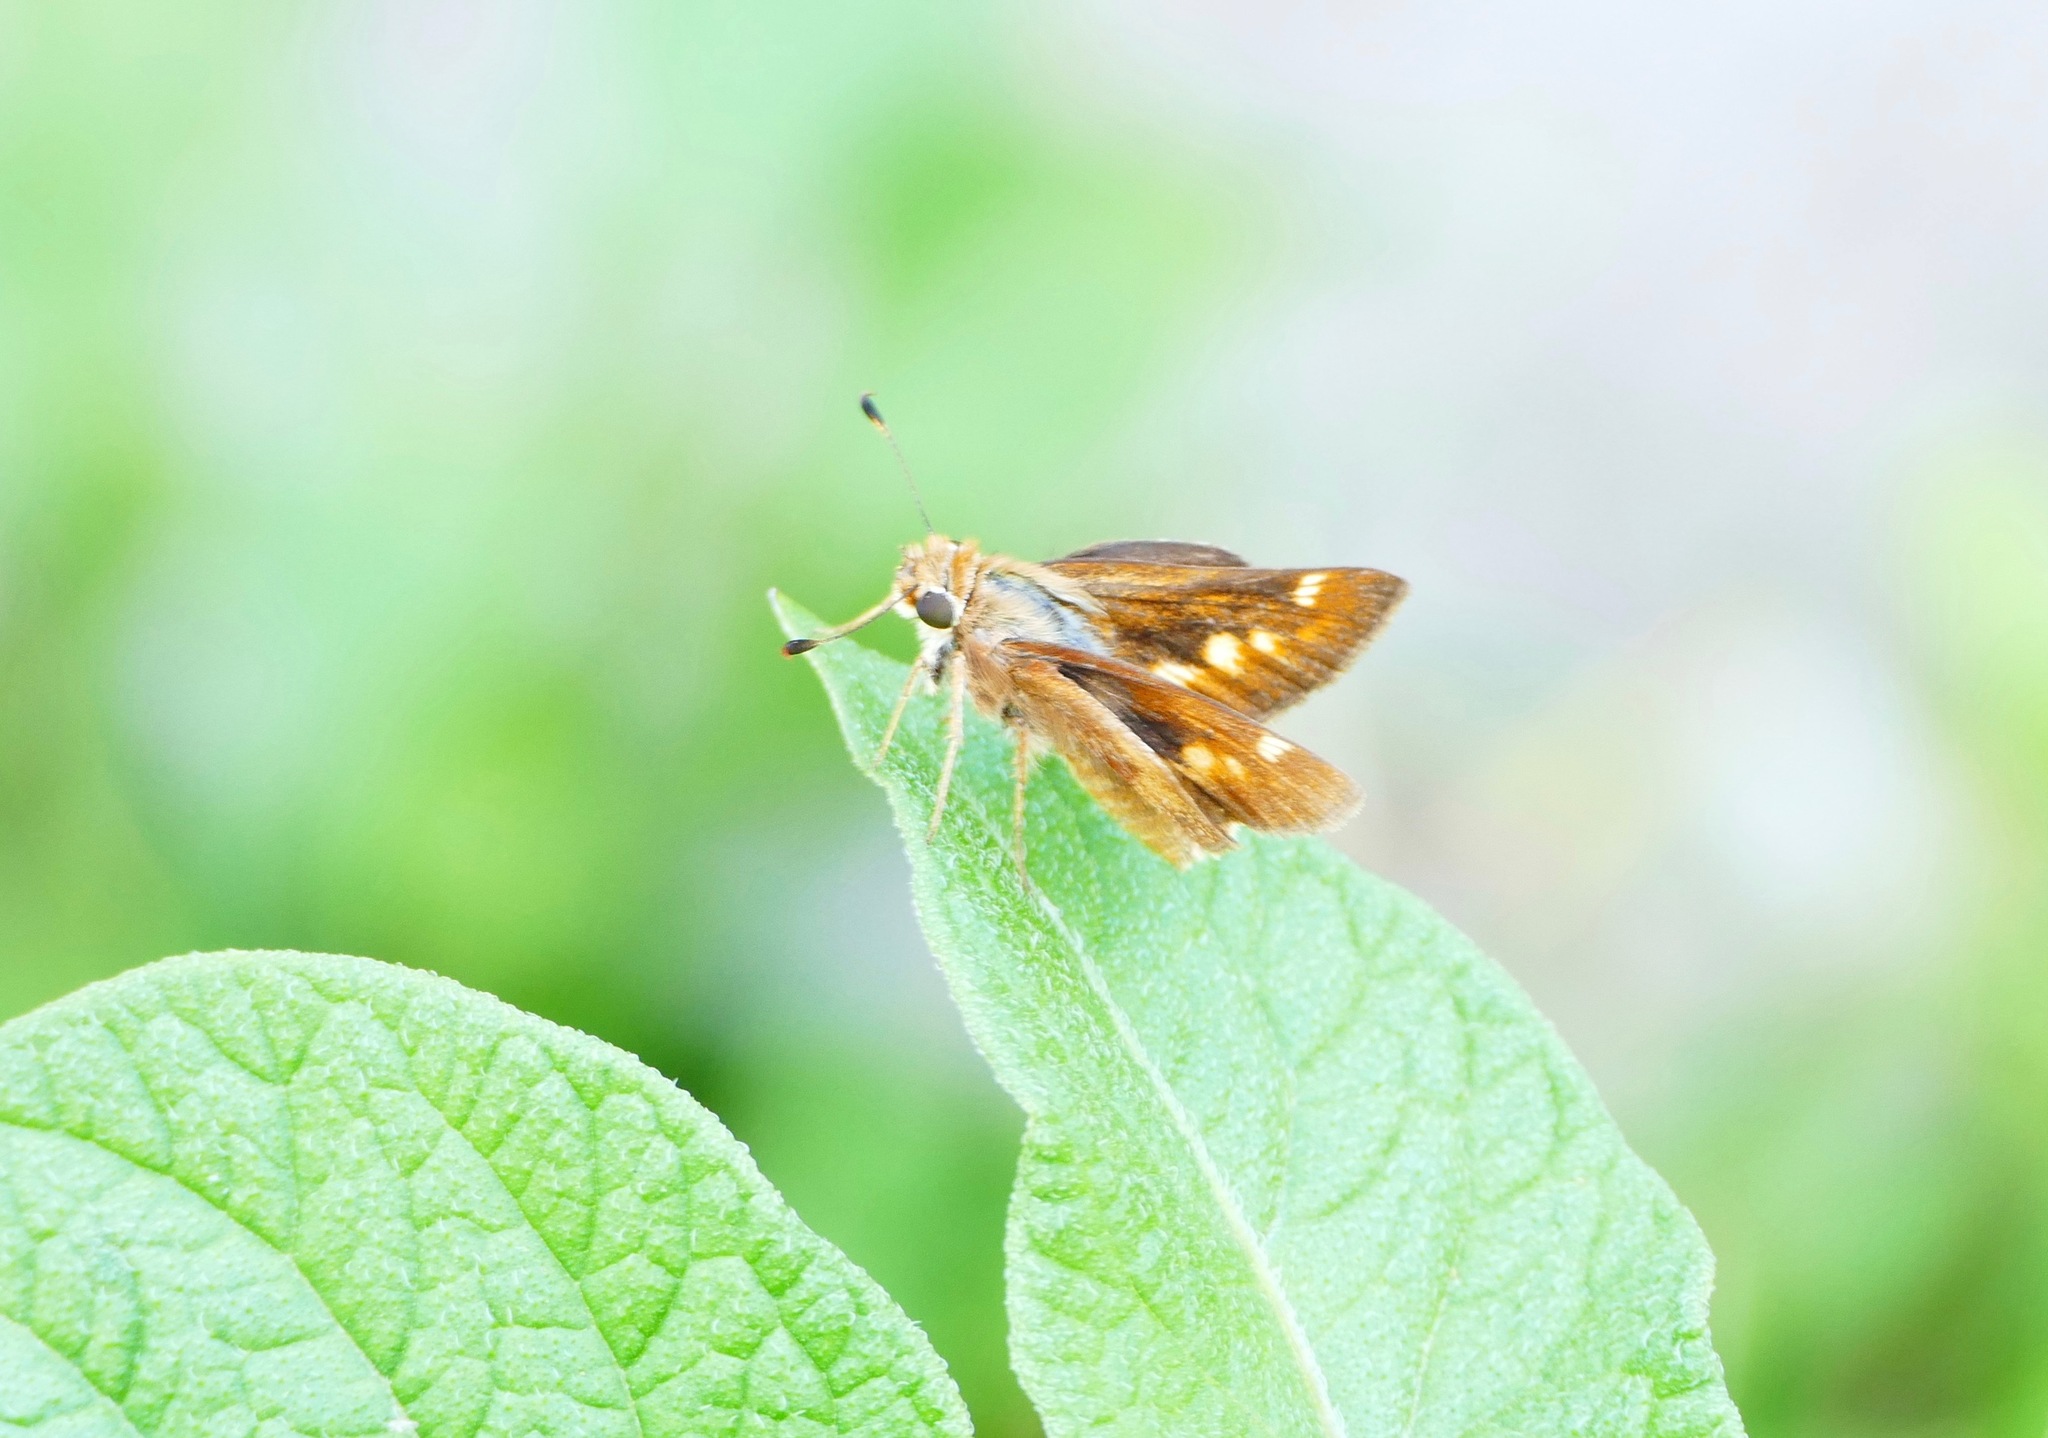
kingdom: Animalia
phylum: Arthropoda
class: Insecta
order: Lepidoptera
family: Hesperiidae
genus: Lon
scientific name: Lon melane
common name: Umber skipper
